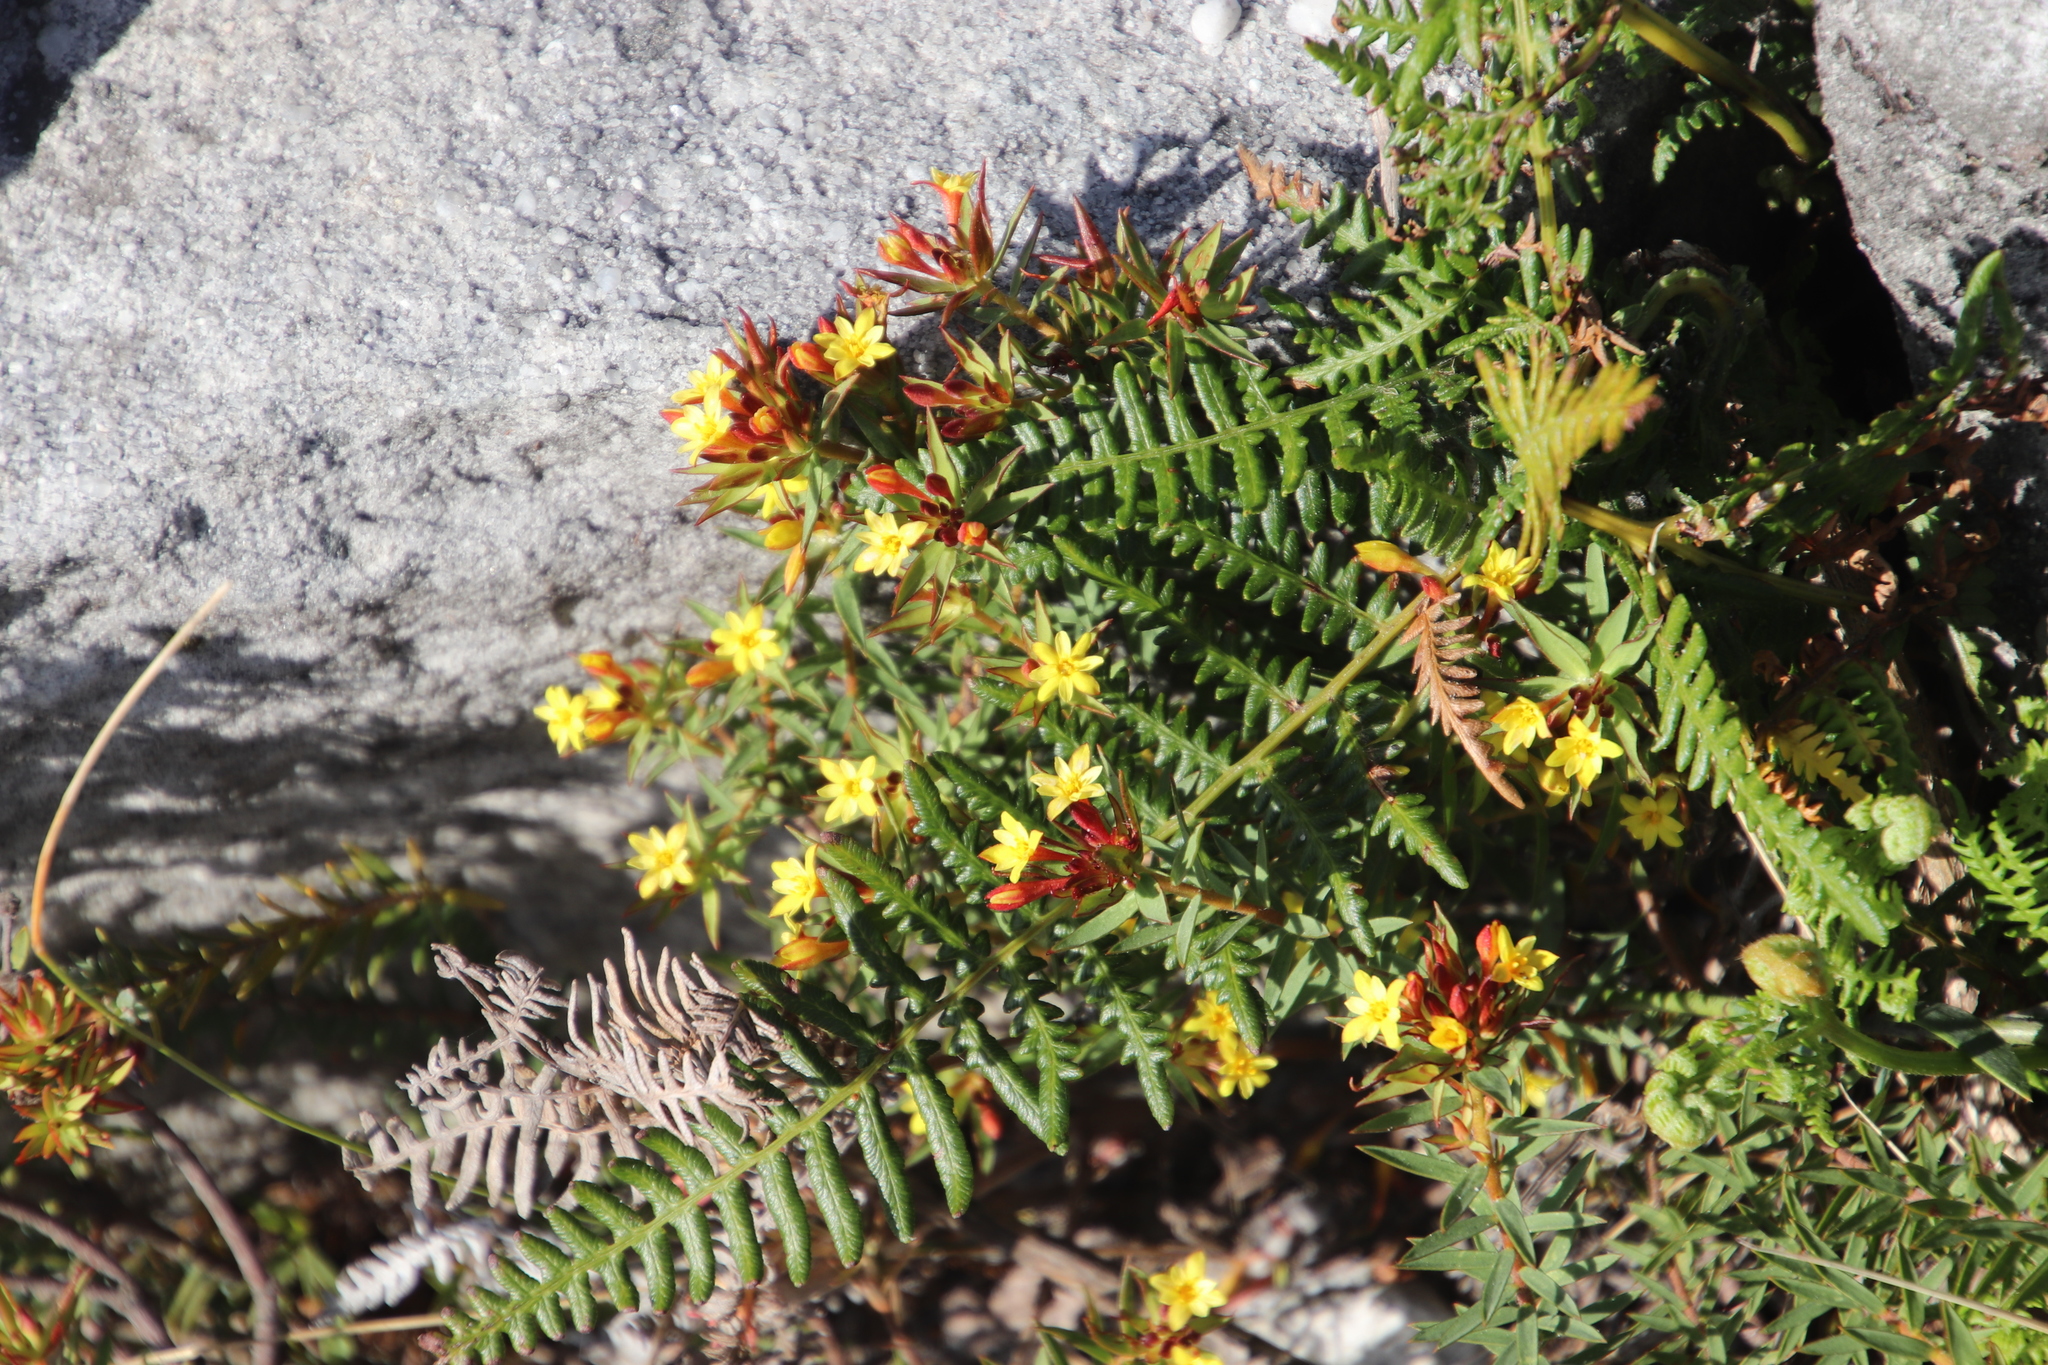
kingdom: Plantae
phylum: Tracheophyta
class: Magnoliopsida
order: Malvales
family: Thymelaeaceae
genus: Gnidia
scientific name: Gnidia juniperifolia
